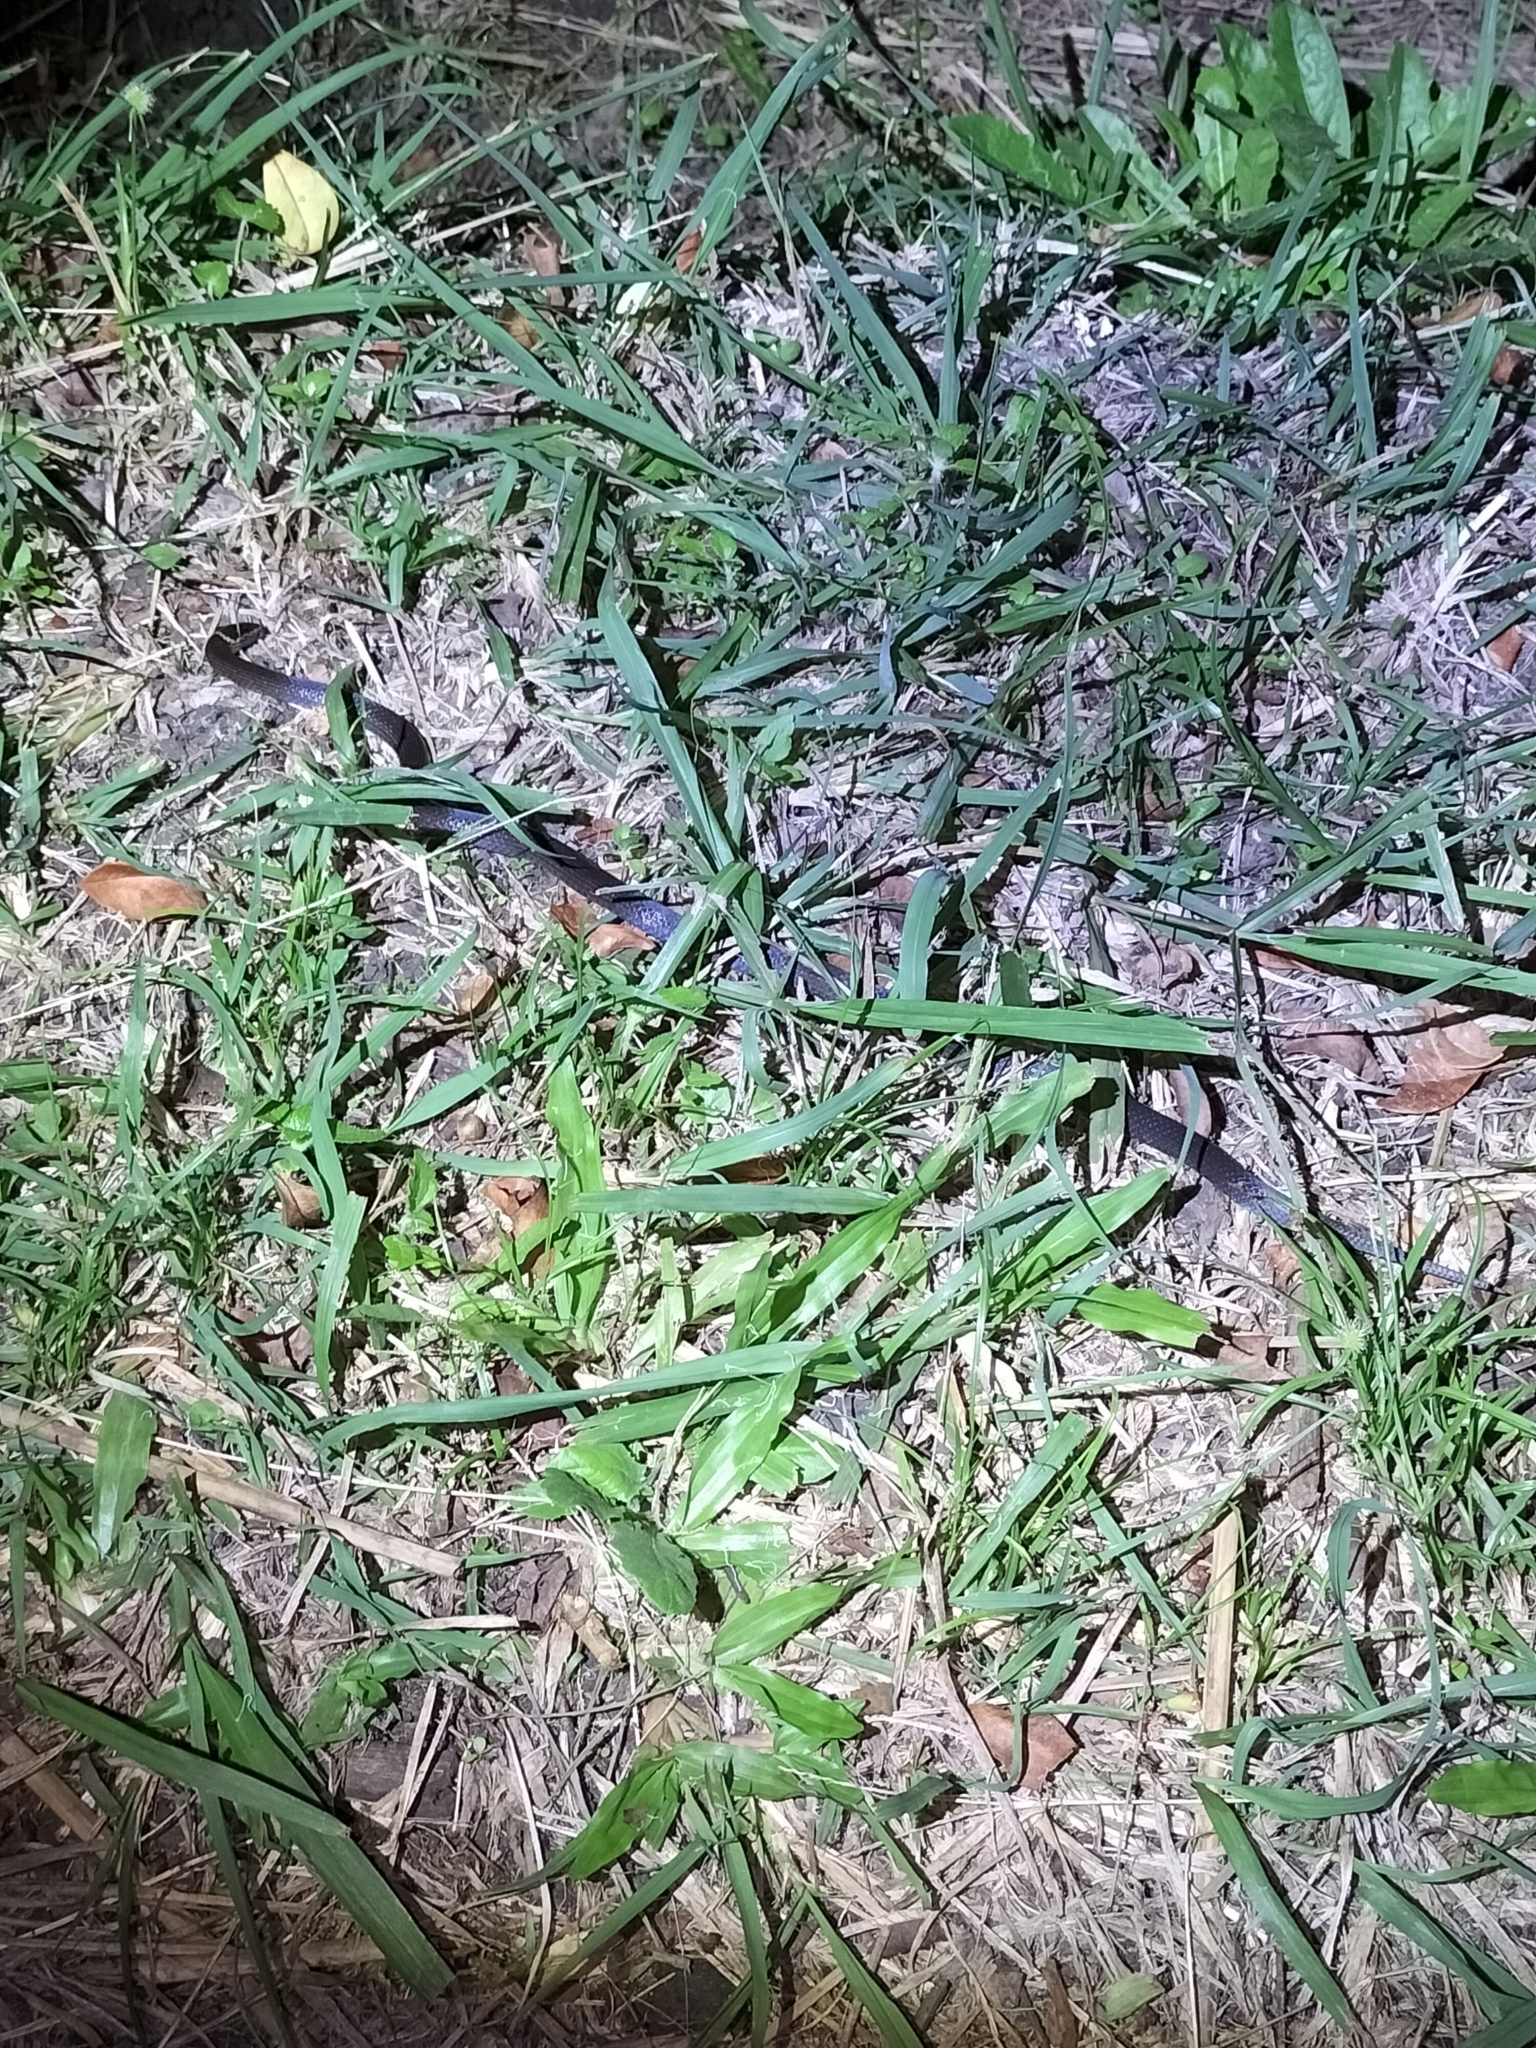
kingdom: Animalia
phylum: Chordata
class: Squamata
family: Elapidae
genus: Cacophis
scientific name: Cacophis churchilli
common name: Northern dward-crowned snake
